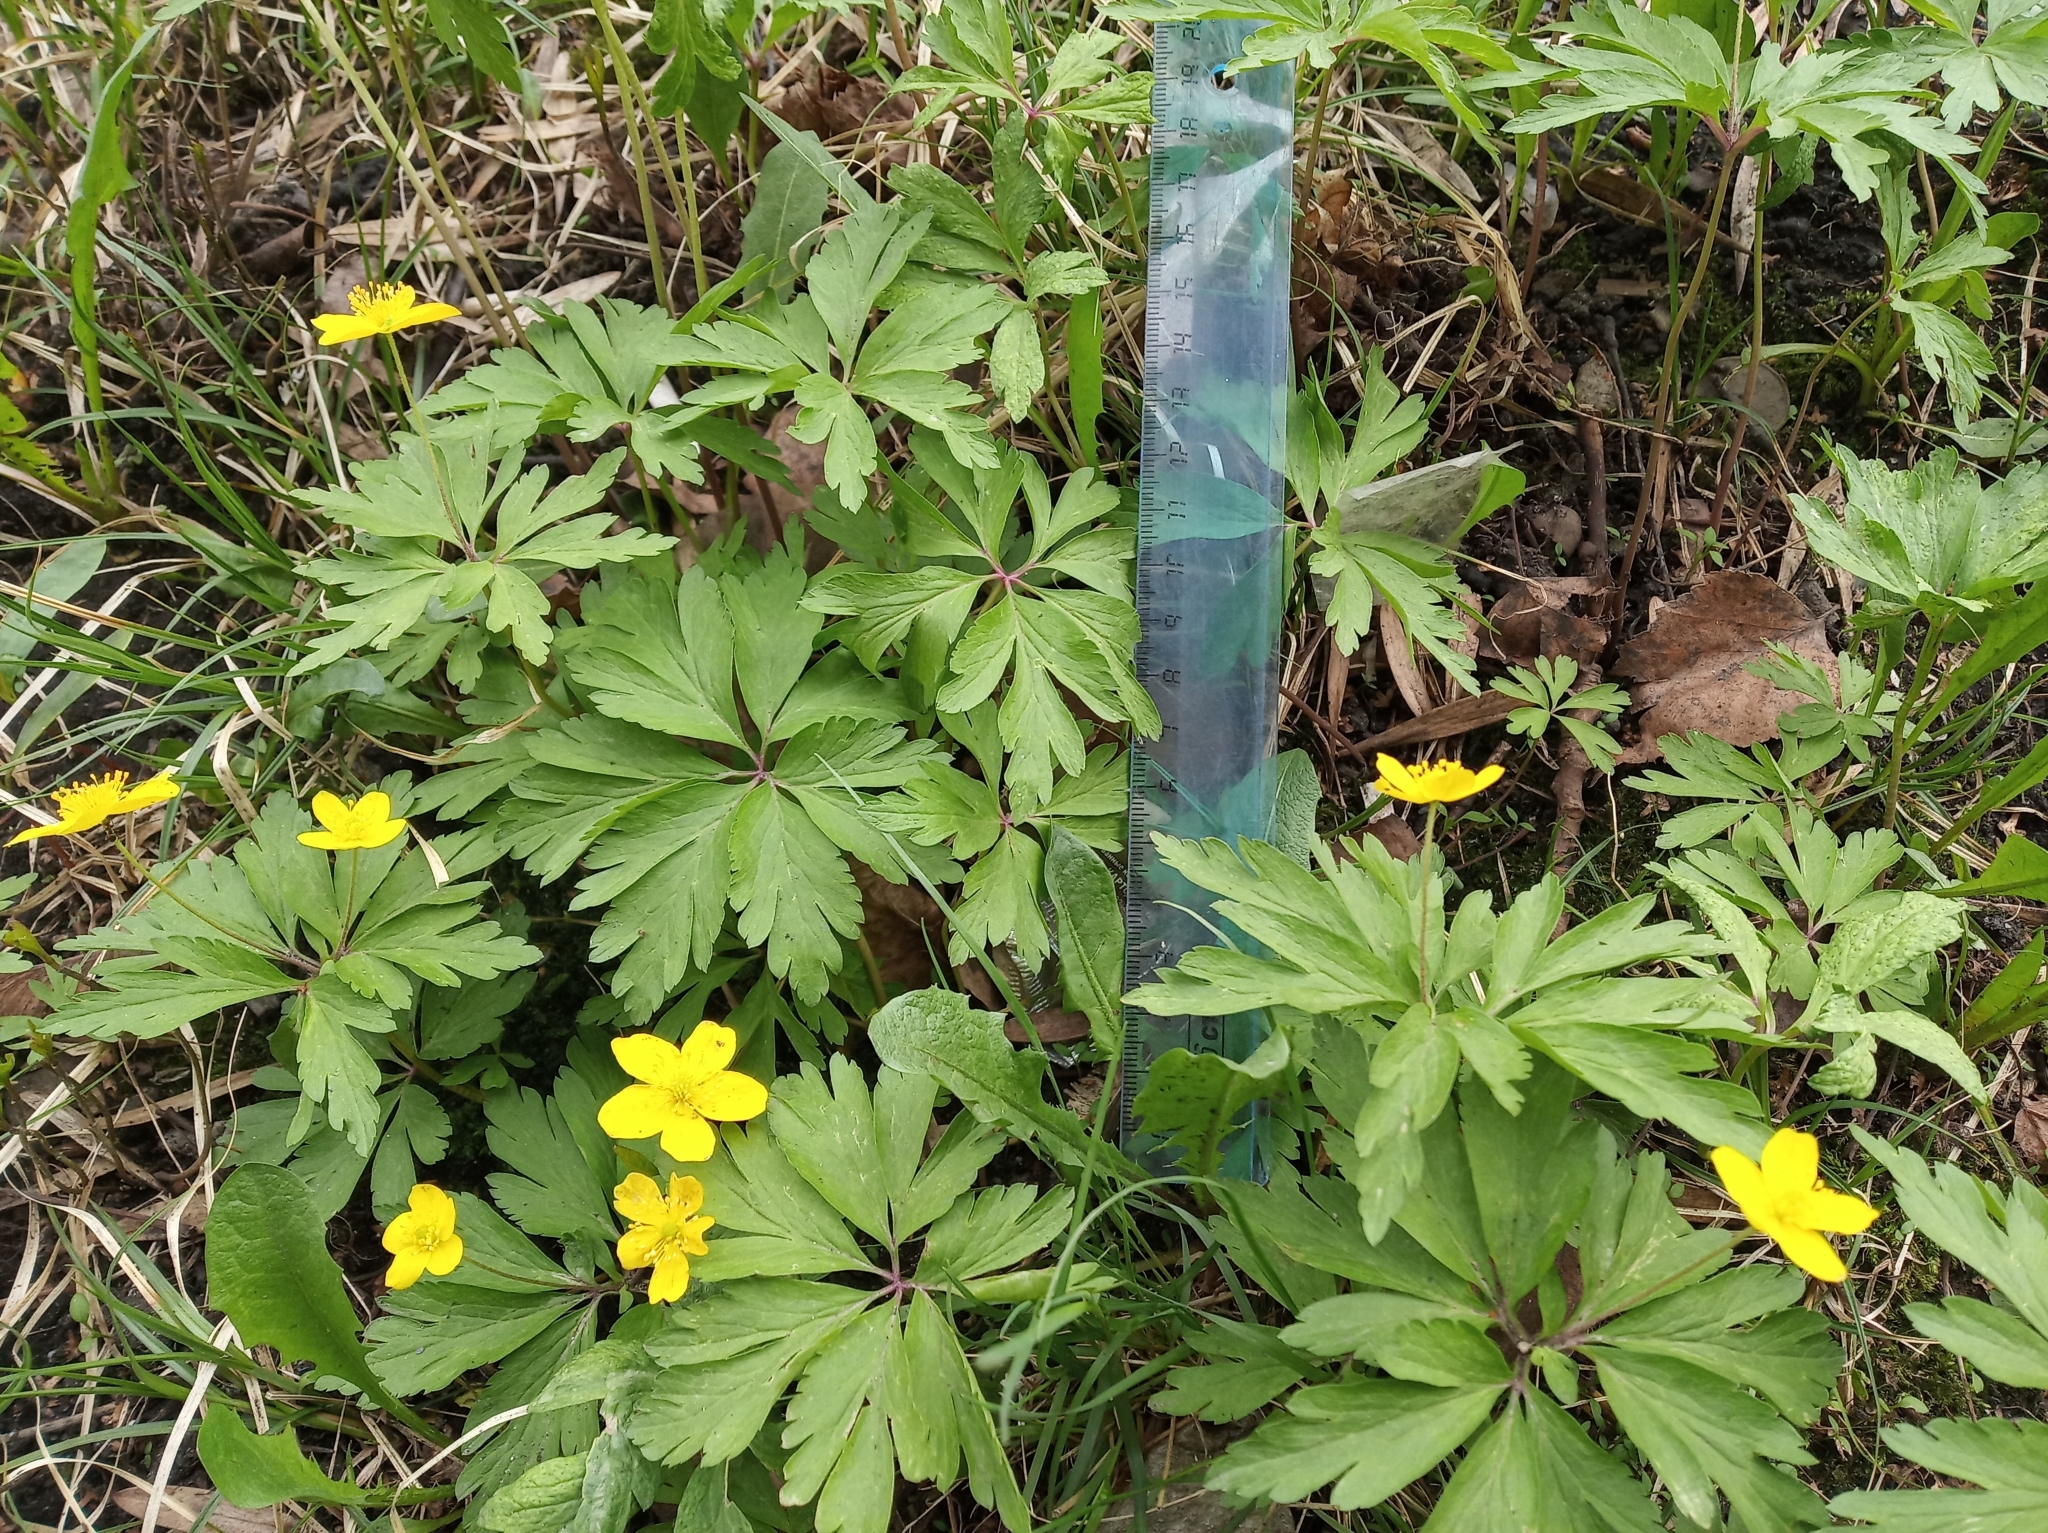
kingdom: Plantae
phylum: Tracheophyta
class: Magnoliopsida
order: Ranunculales
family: Ranunculaceae
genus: Anemone
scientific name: Anemone ranunculoides
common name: Yellow anemone
